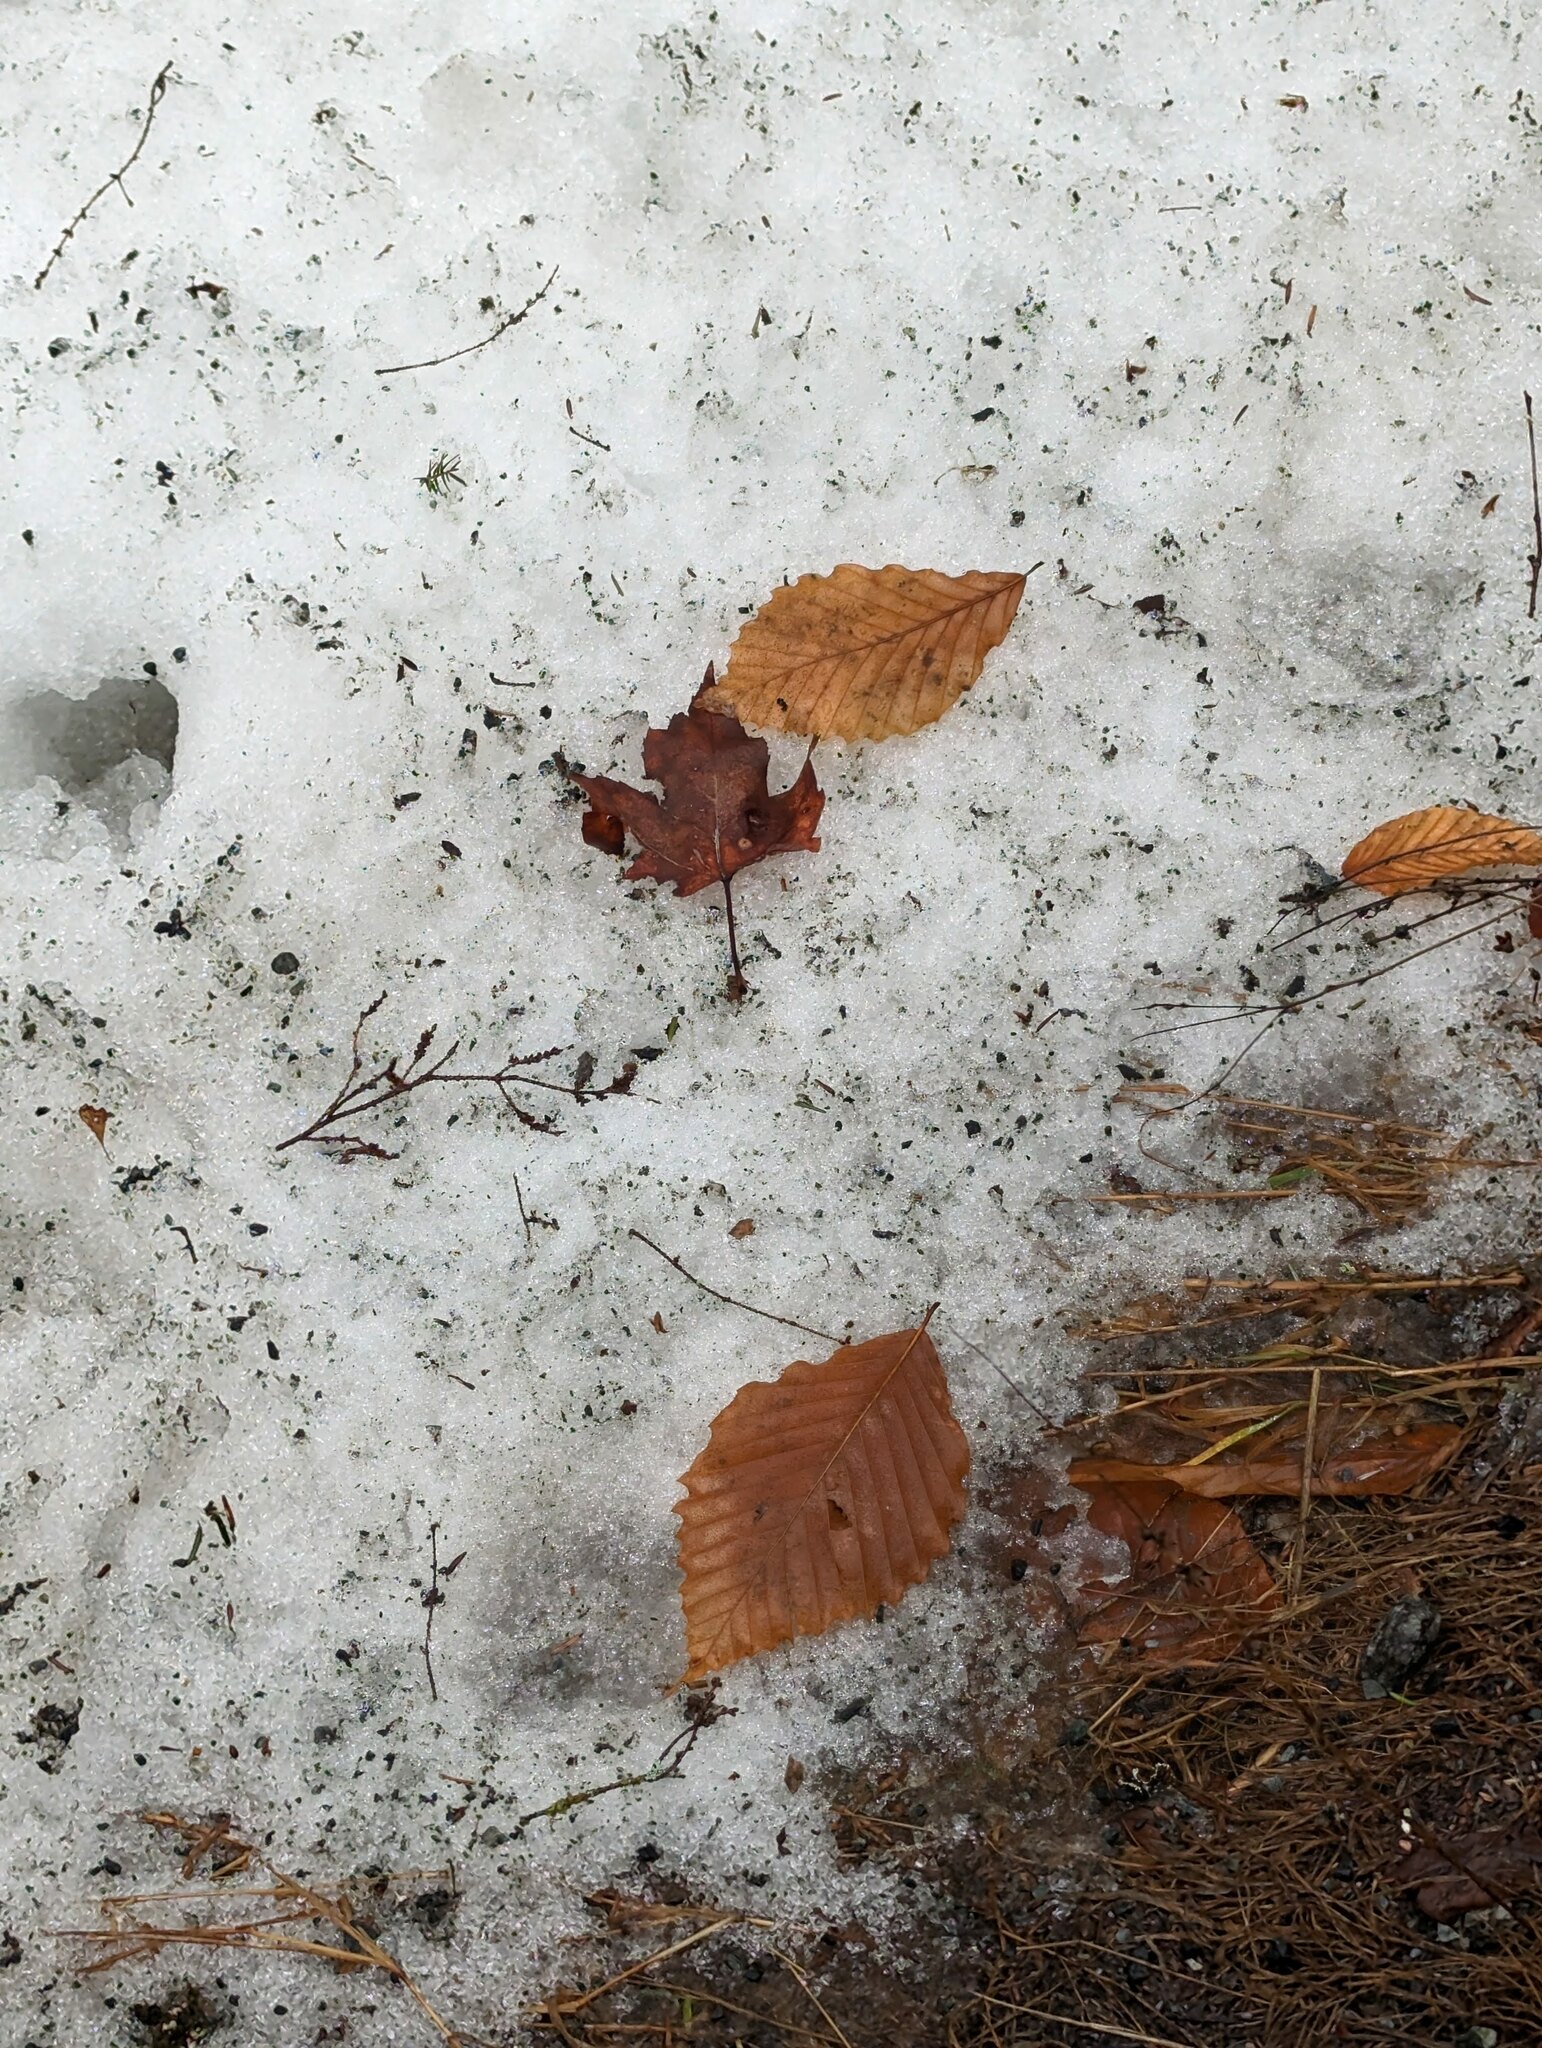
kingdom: Plantae
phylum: Tracheophyta
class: Magnoliopsida
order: Fagales
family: Fagaceae
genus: Fagus
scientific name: Fagus grandifolia
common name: American beech
